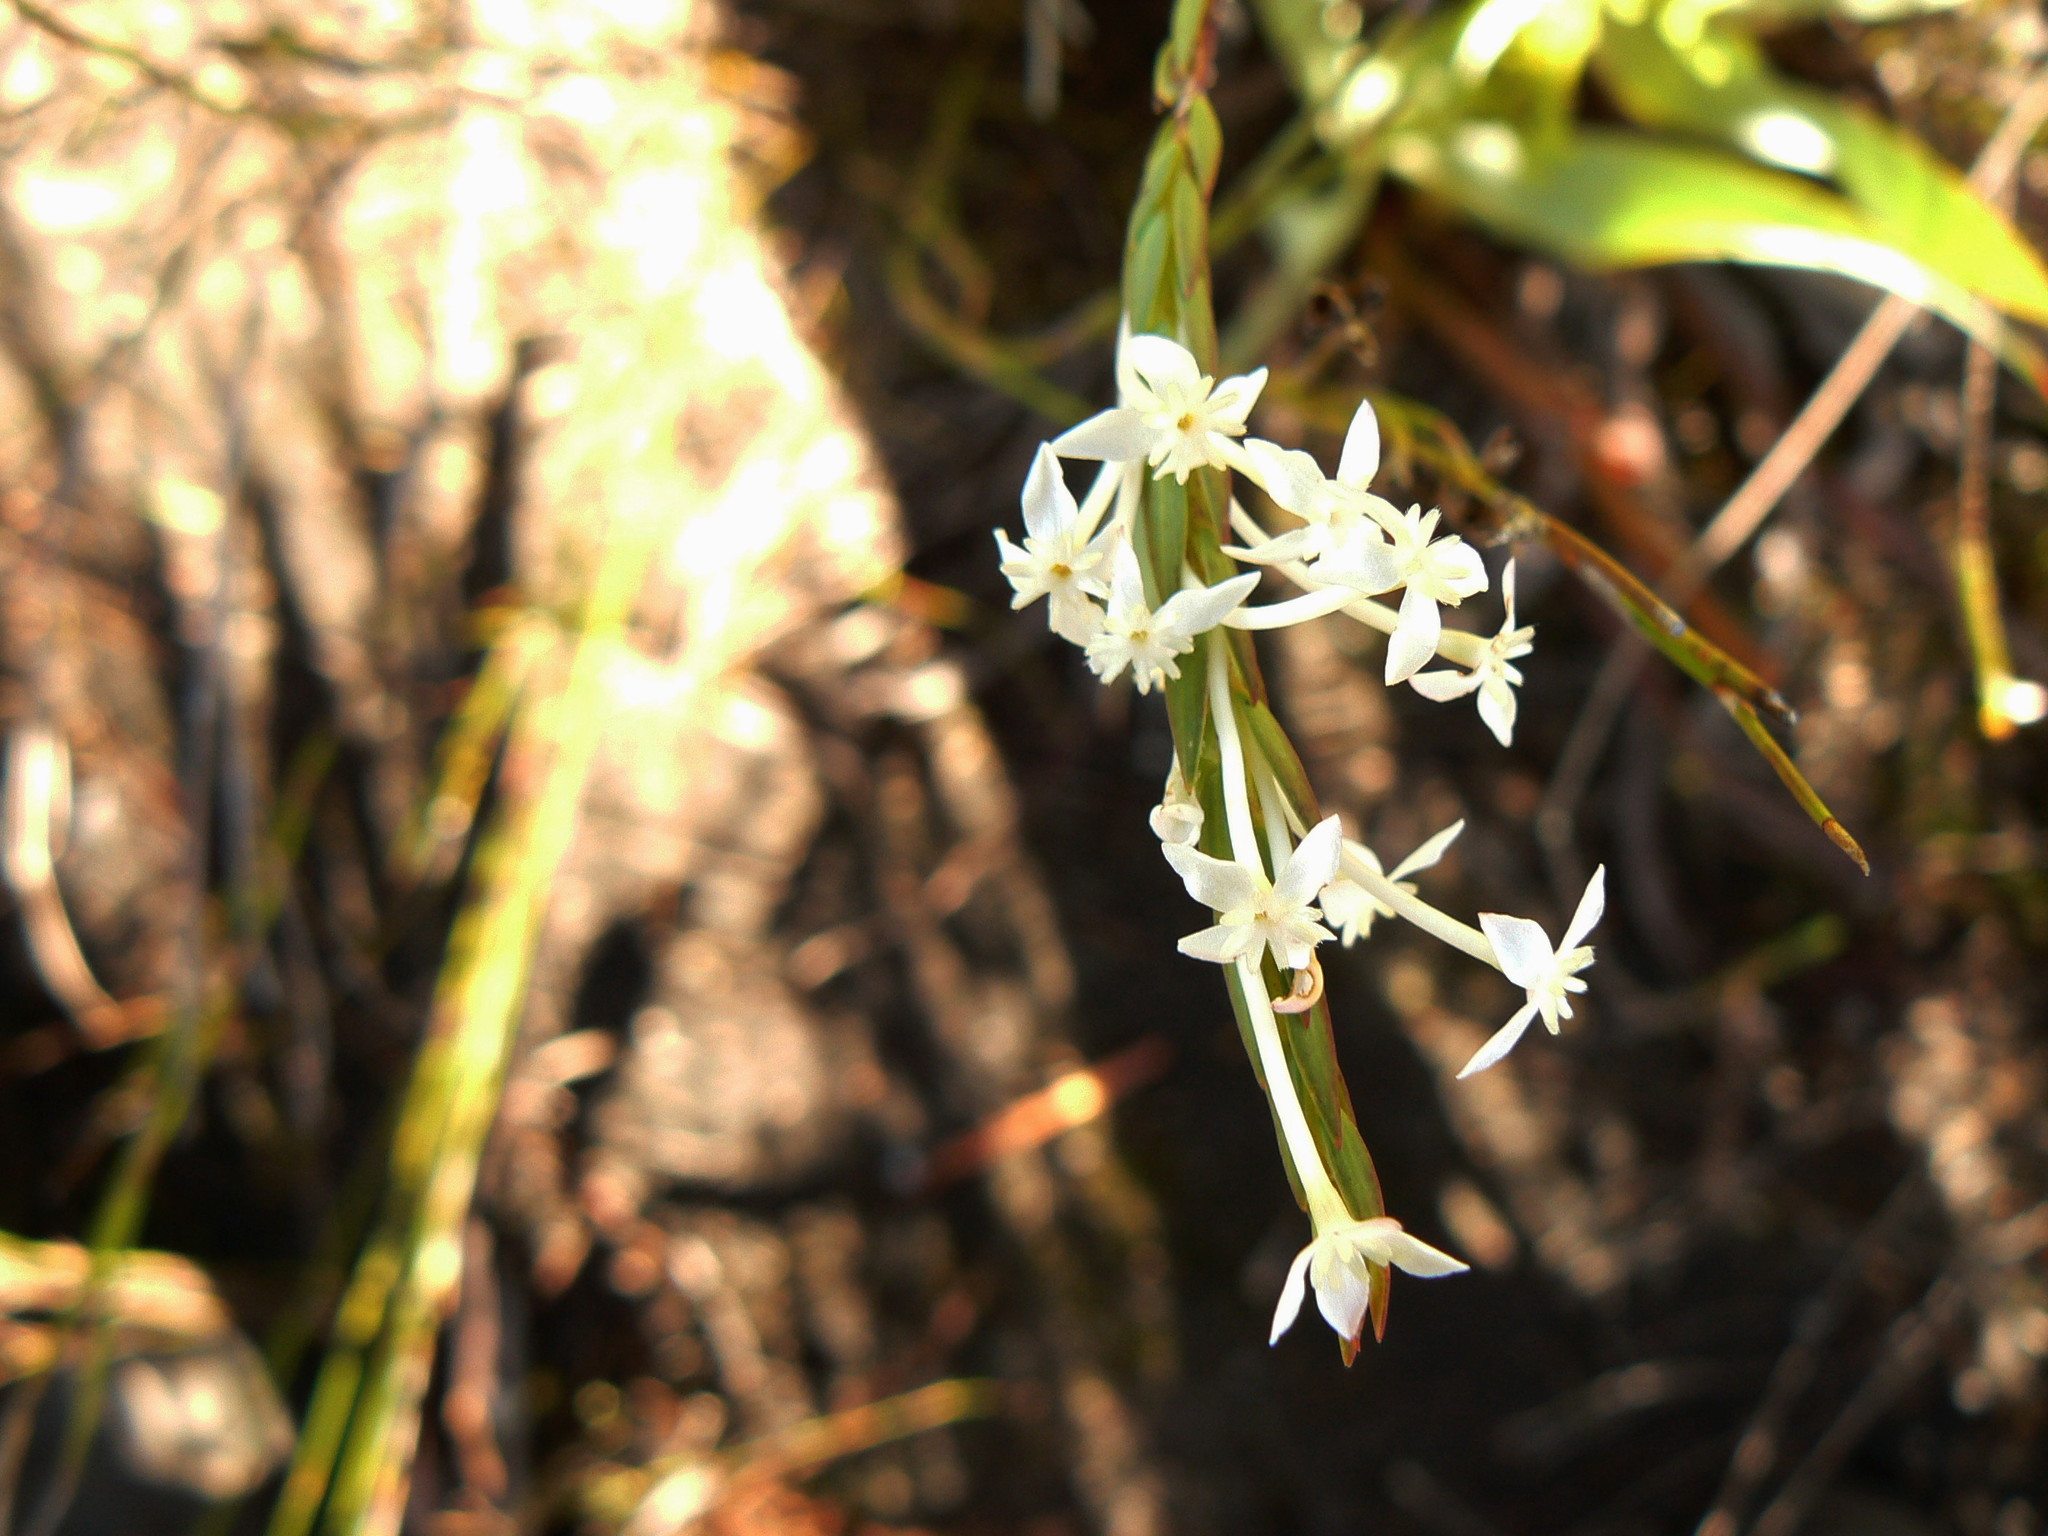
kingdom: Plantae
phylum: Tracheophyta
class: Magnoliopsida
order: Malvales
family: Thymelaeaceae
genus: Struthiola
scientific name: Struthiola myrsinites
